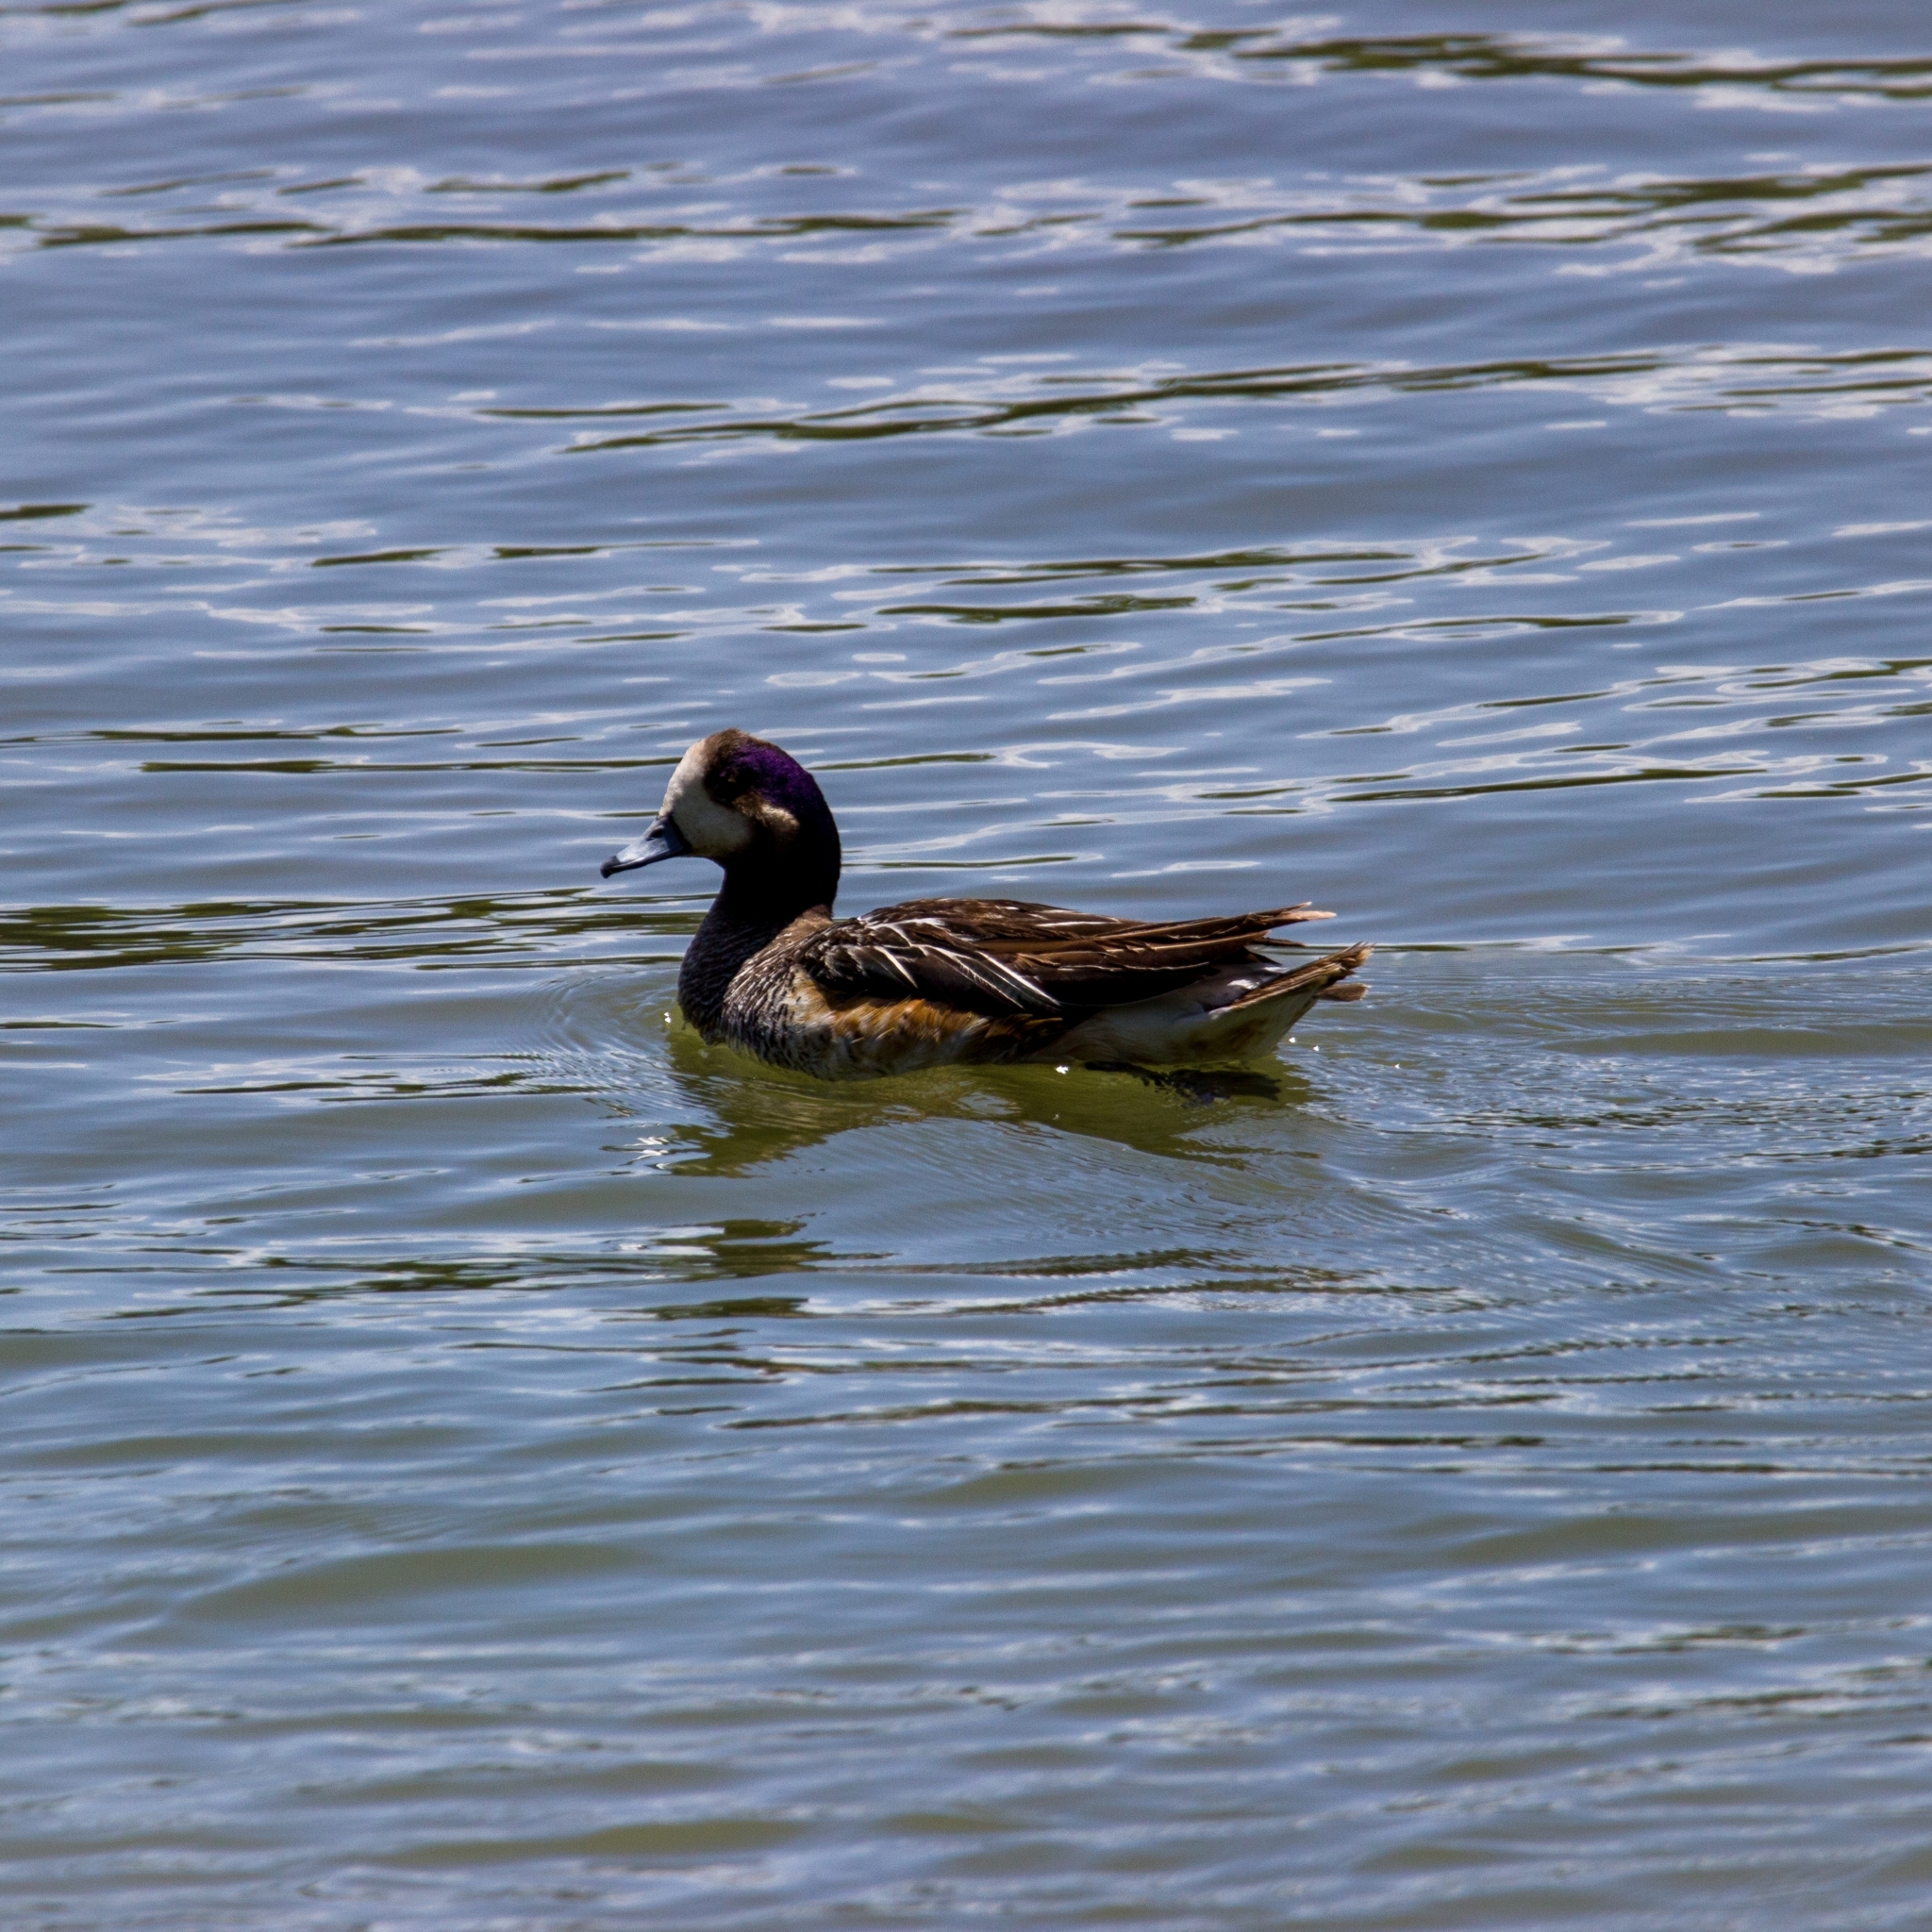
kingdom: Animalia
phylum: Chordata
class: Aves
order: Anseriformes
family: Anatidae
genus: Mareca
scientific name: Mareca sibilatrix
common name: Chiloe wigeon
